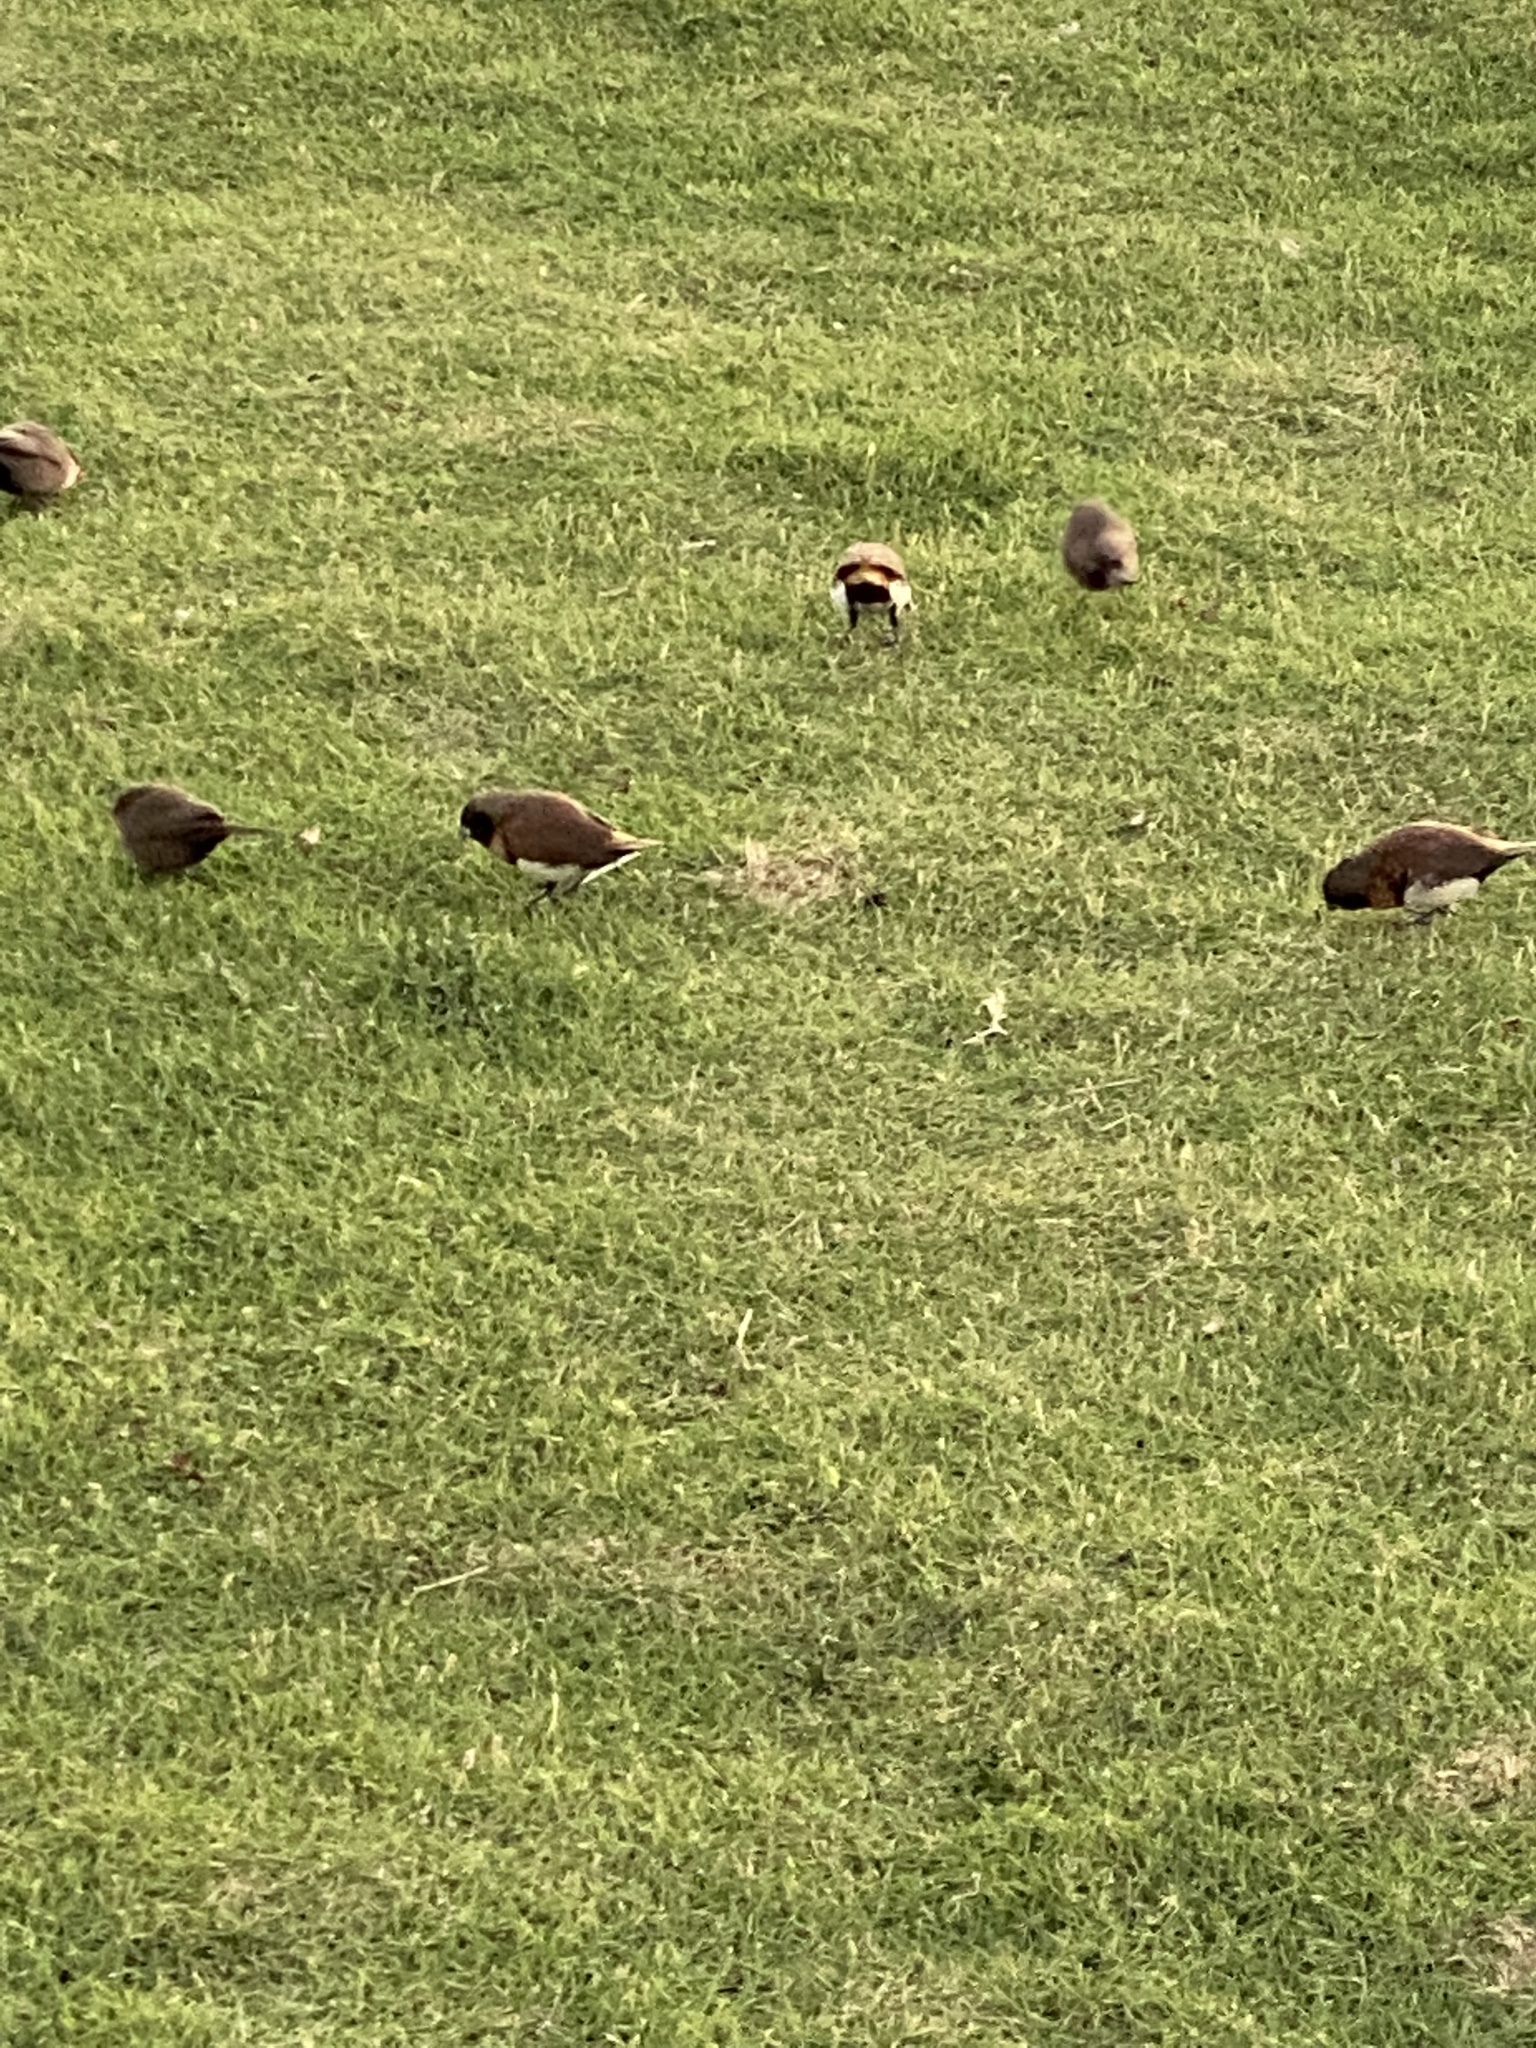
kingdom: Animalia
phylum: Chordata
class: Aves
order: Passeriformes
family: Estrildidae
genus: Lonchura
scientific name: Lonchura castaneothorax
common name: Chestnut-breasted mannikin
